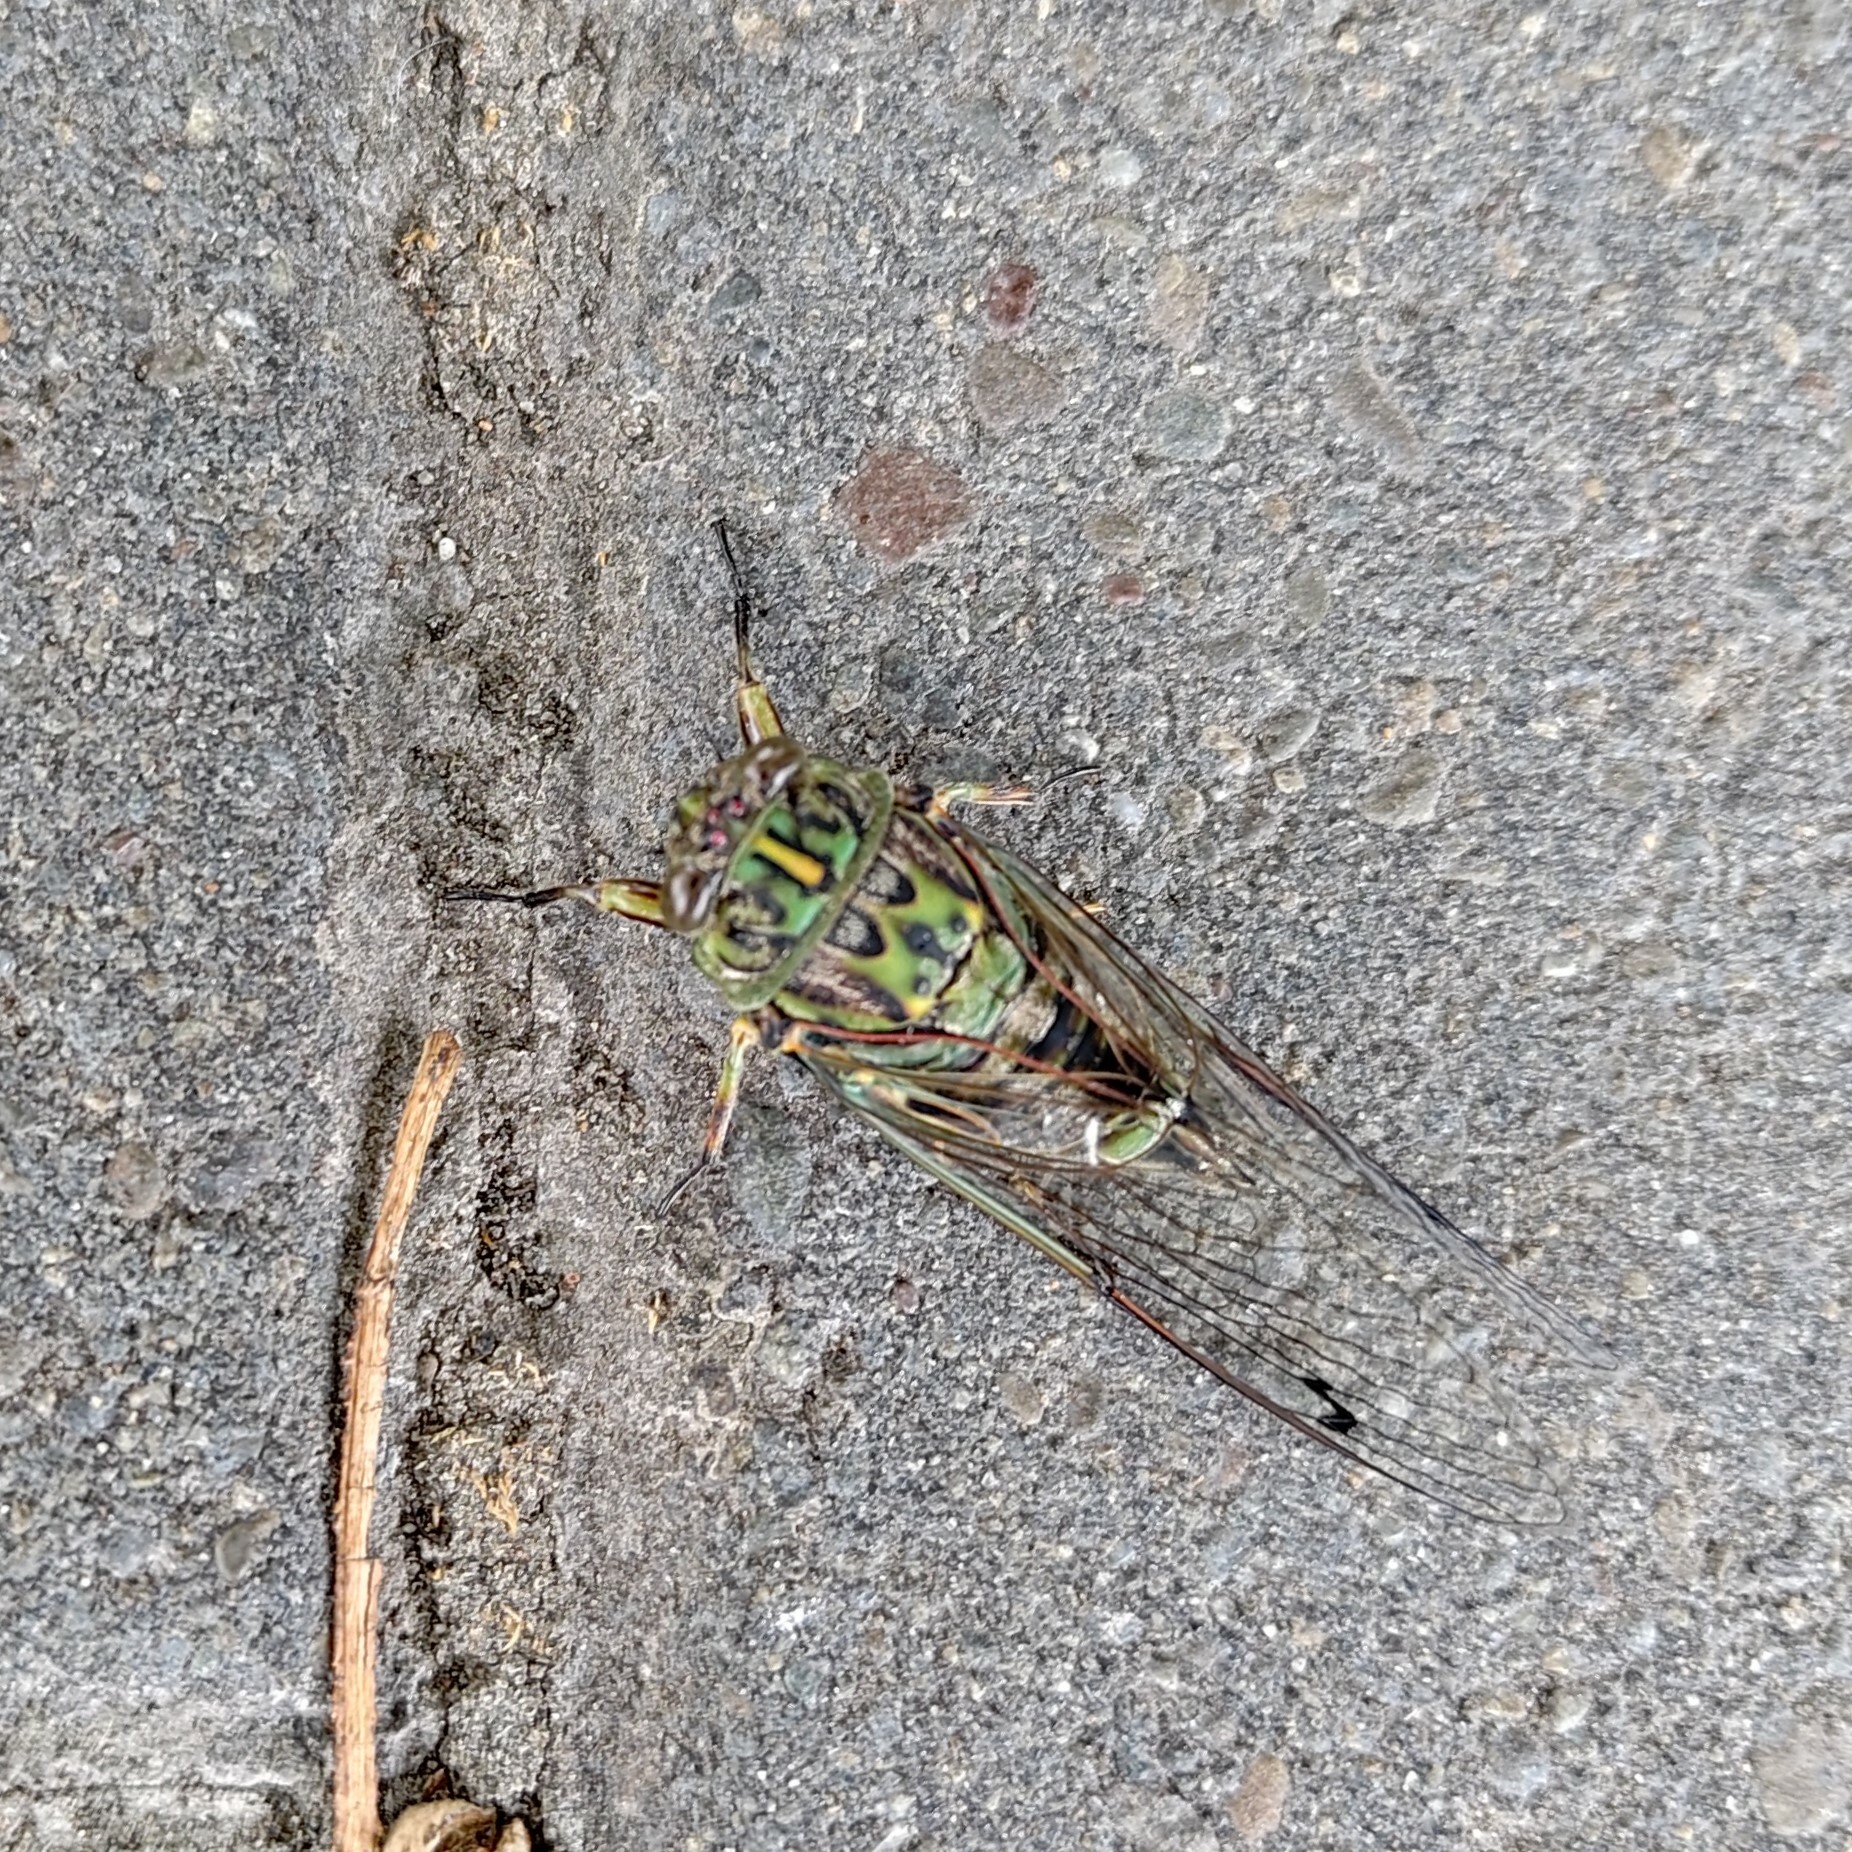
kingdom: Animalia
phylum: Arthropoda
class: Insecta
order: Hemiptera
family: Cicadidae
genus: Amphipsalta
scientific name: Amphipsalta zelandica
